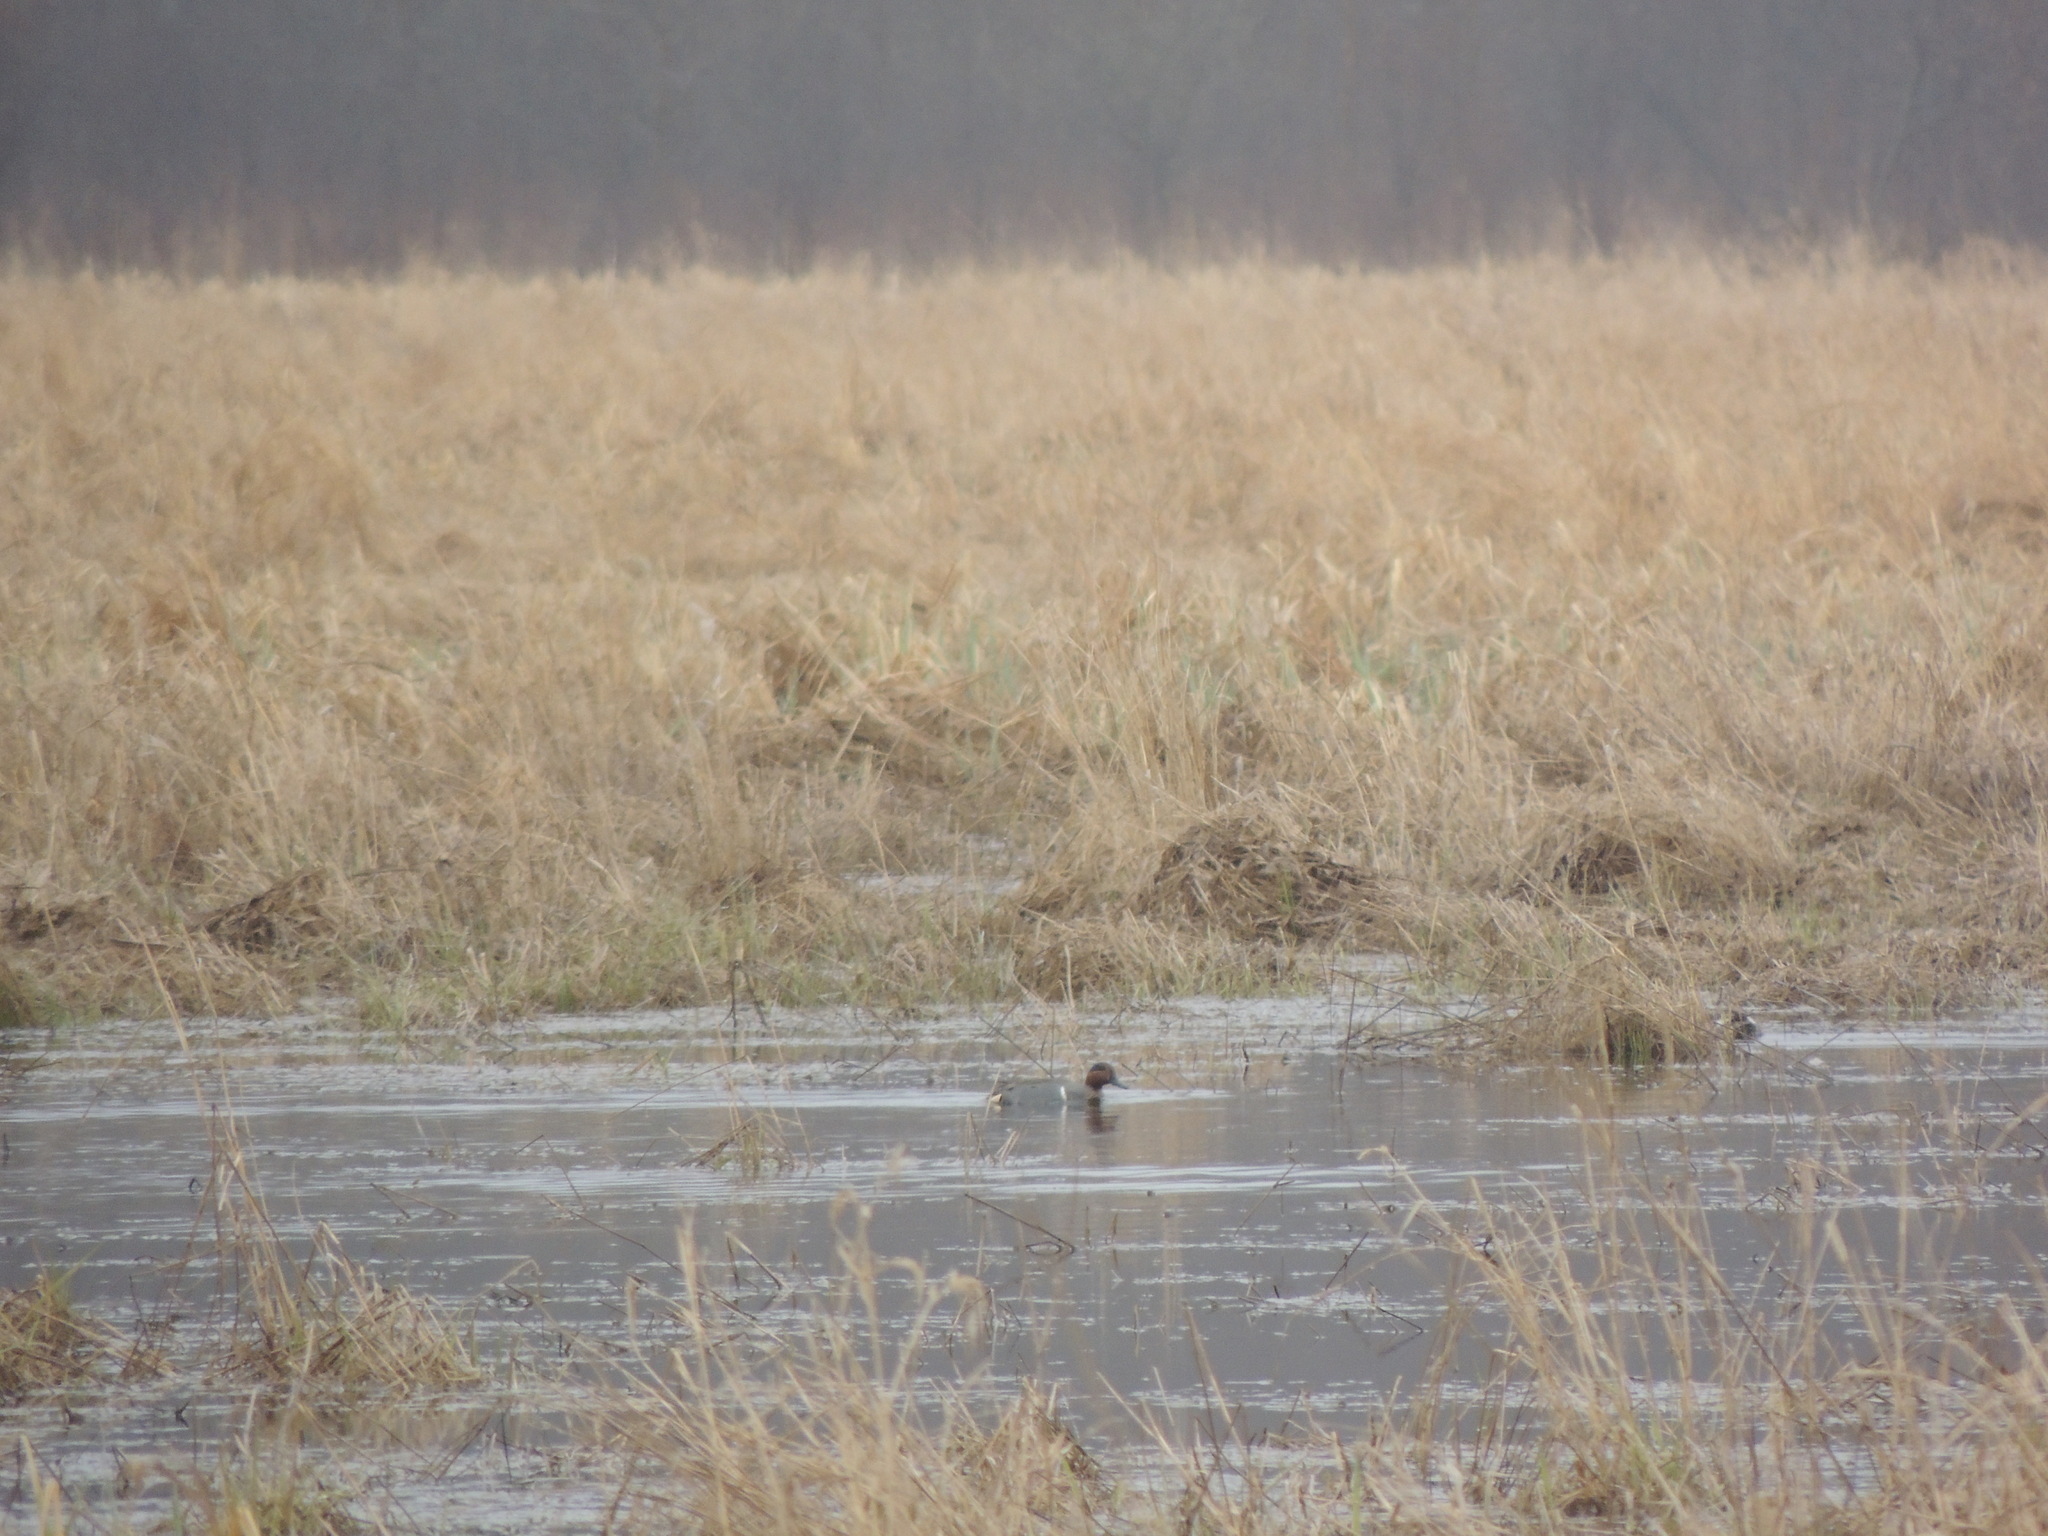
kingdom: Animalia
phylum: Chordata
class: Aves
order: Anseriformes
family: Anatidae
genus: Anas
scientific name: Anas crecca
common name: Eurasian teal
